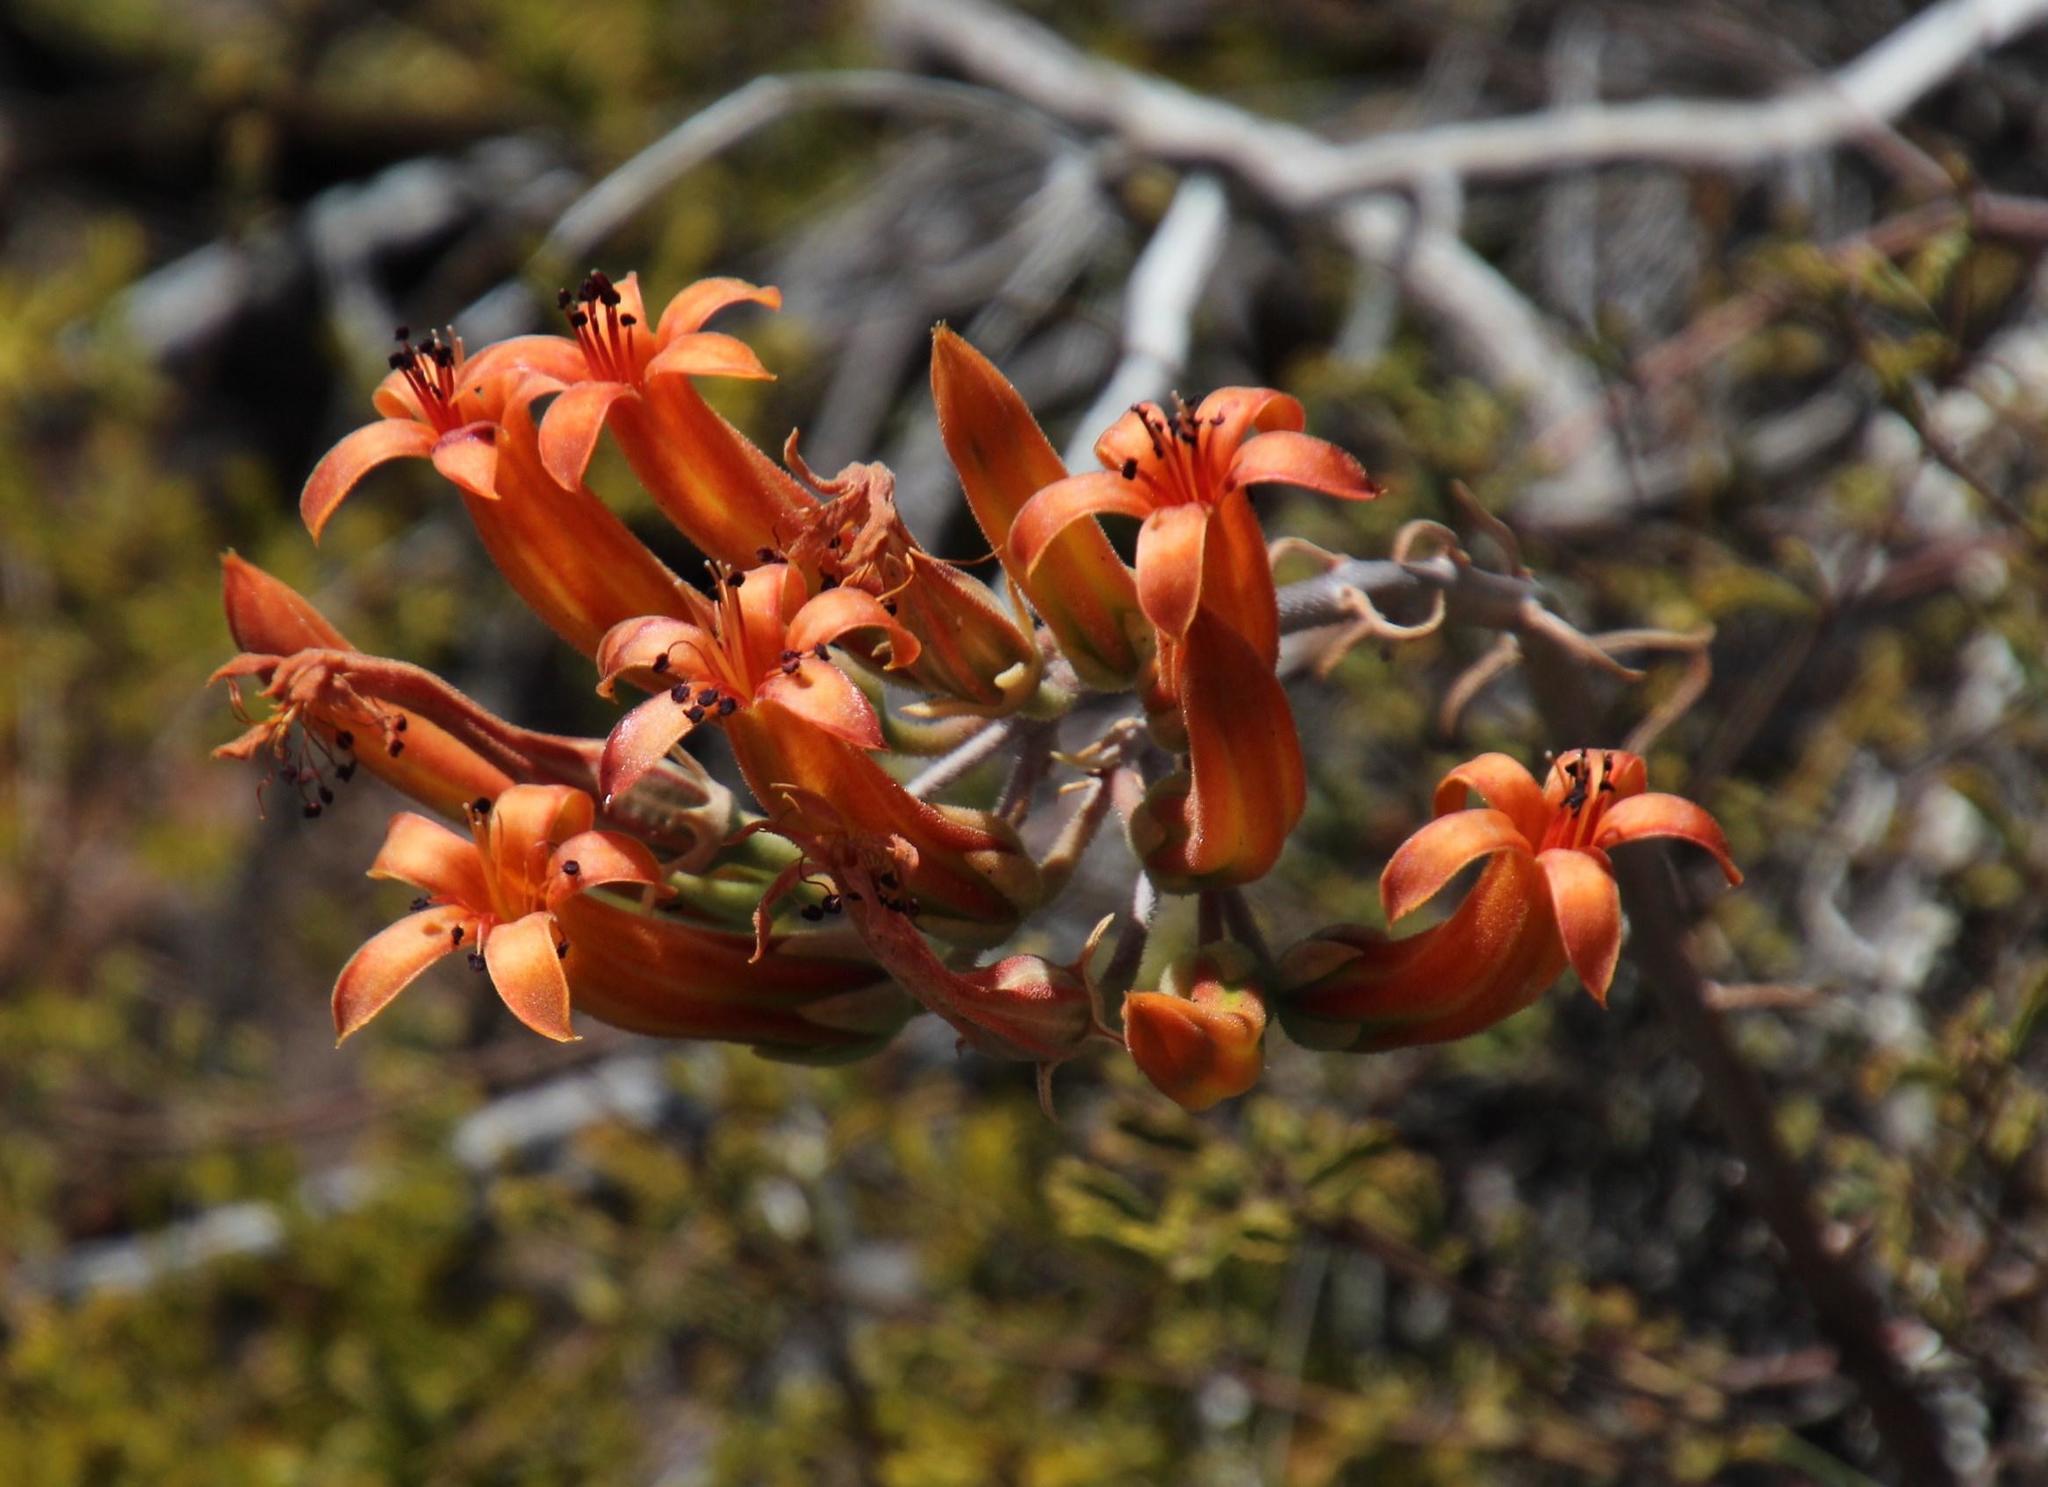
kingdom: Plantae
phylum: Tracheophyta
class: Magnoliopsida
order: Saxifragales
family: Crassulaceae
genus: Tylecodon
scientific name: Tylecodon grandiflorus
